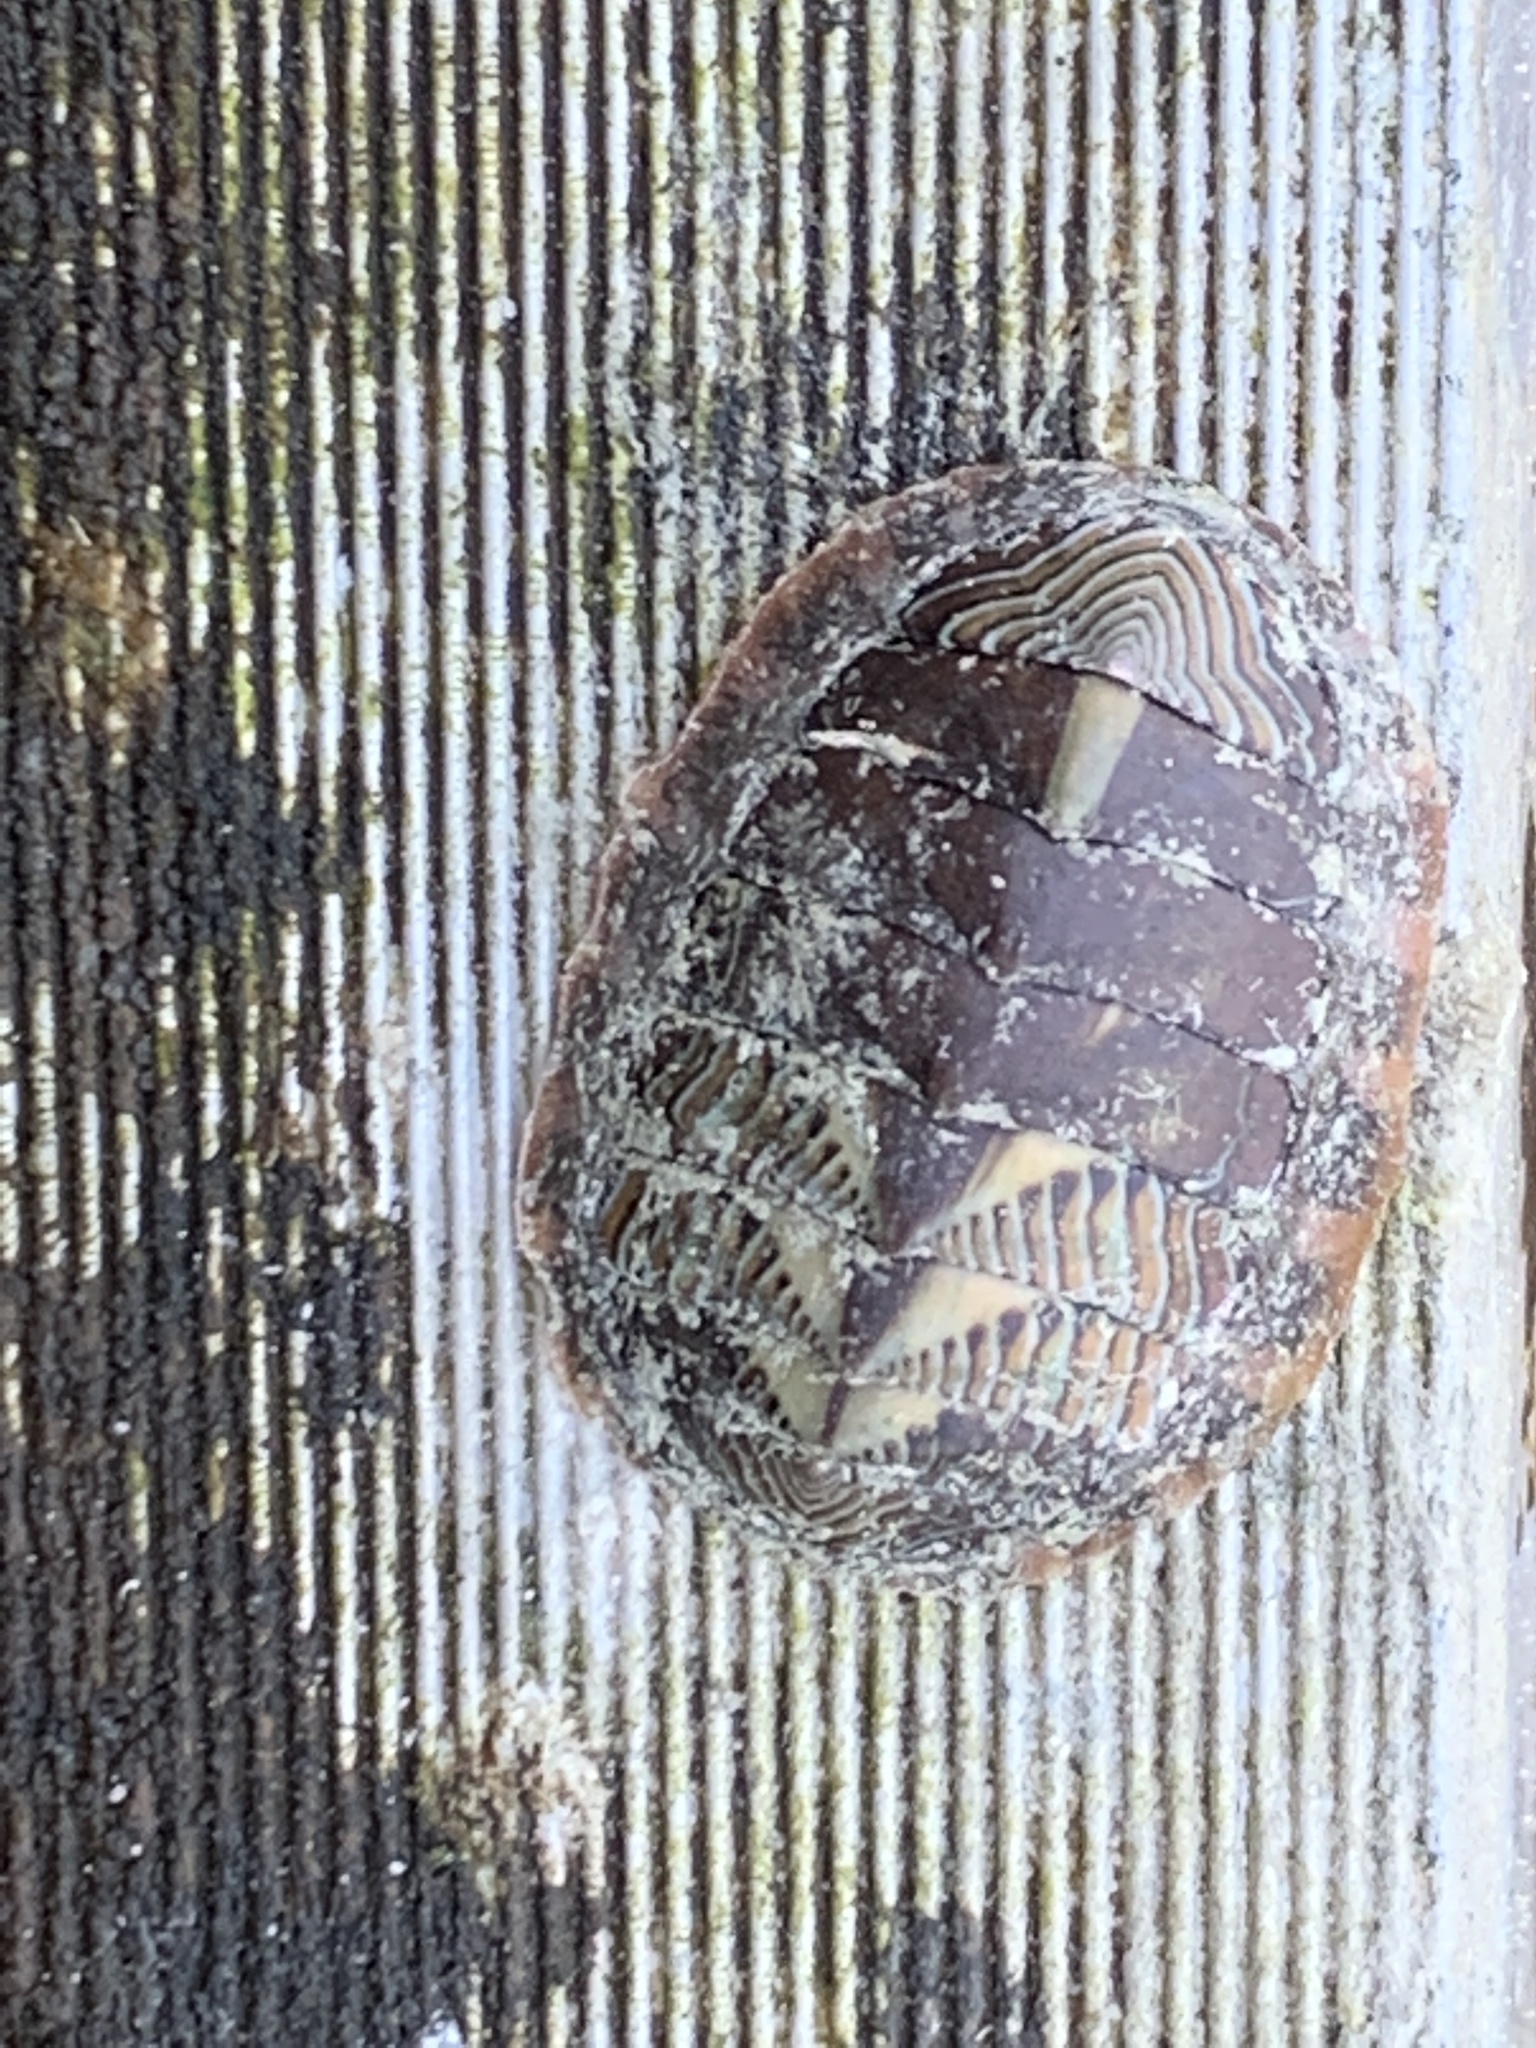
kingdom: Animalia
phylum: Mollusca
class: Polyplacophora
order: Chitonida
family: Tonicellidae
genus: Tonicella
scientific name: Tonicella lineata
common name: Lined chiton
